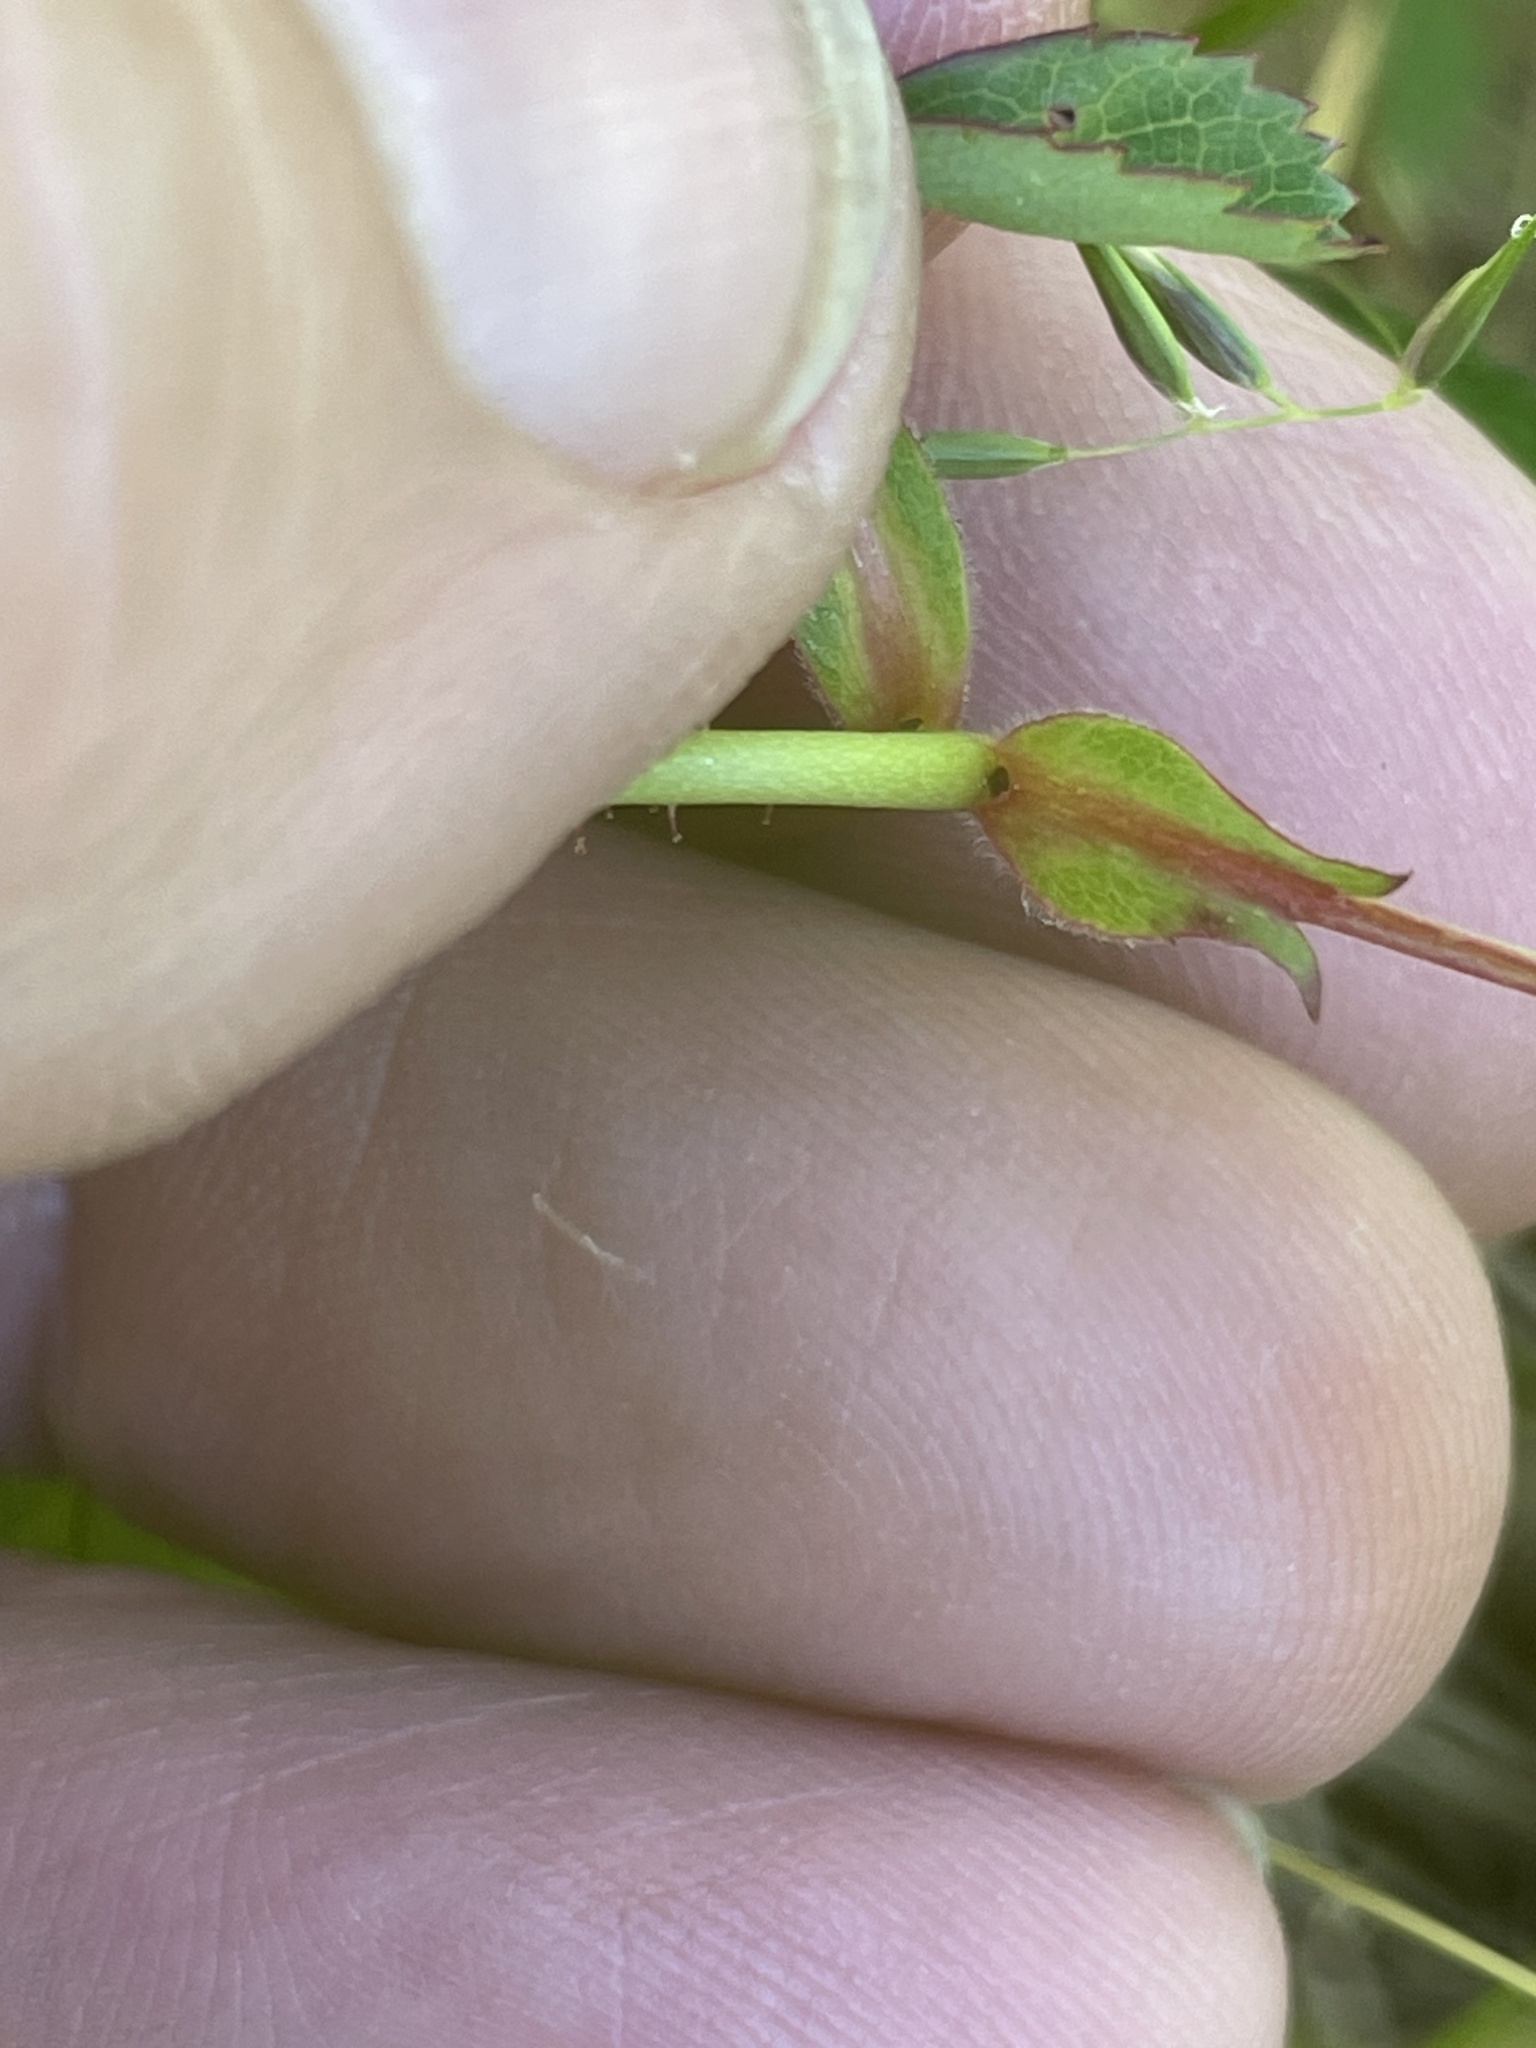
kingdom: Plantae
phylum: Tracheophyta
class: Magnoliopsida
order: Rosales
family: Rosaceae
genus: Rosa
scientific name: Rosa carolina
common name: Pasture rose
